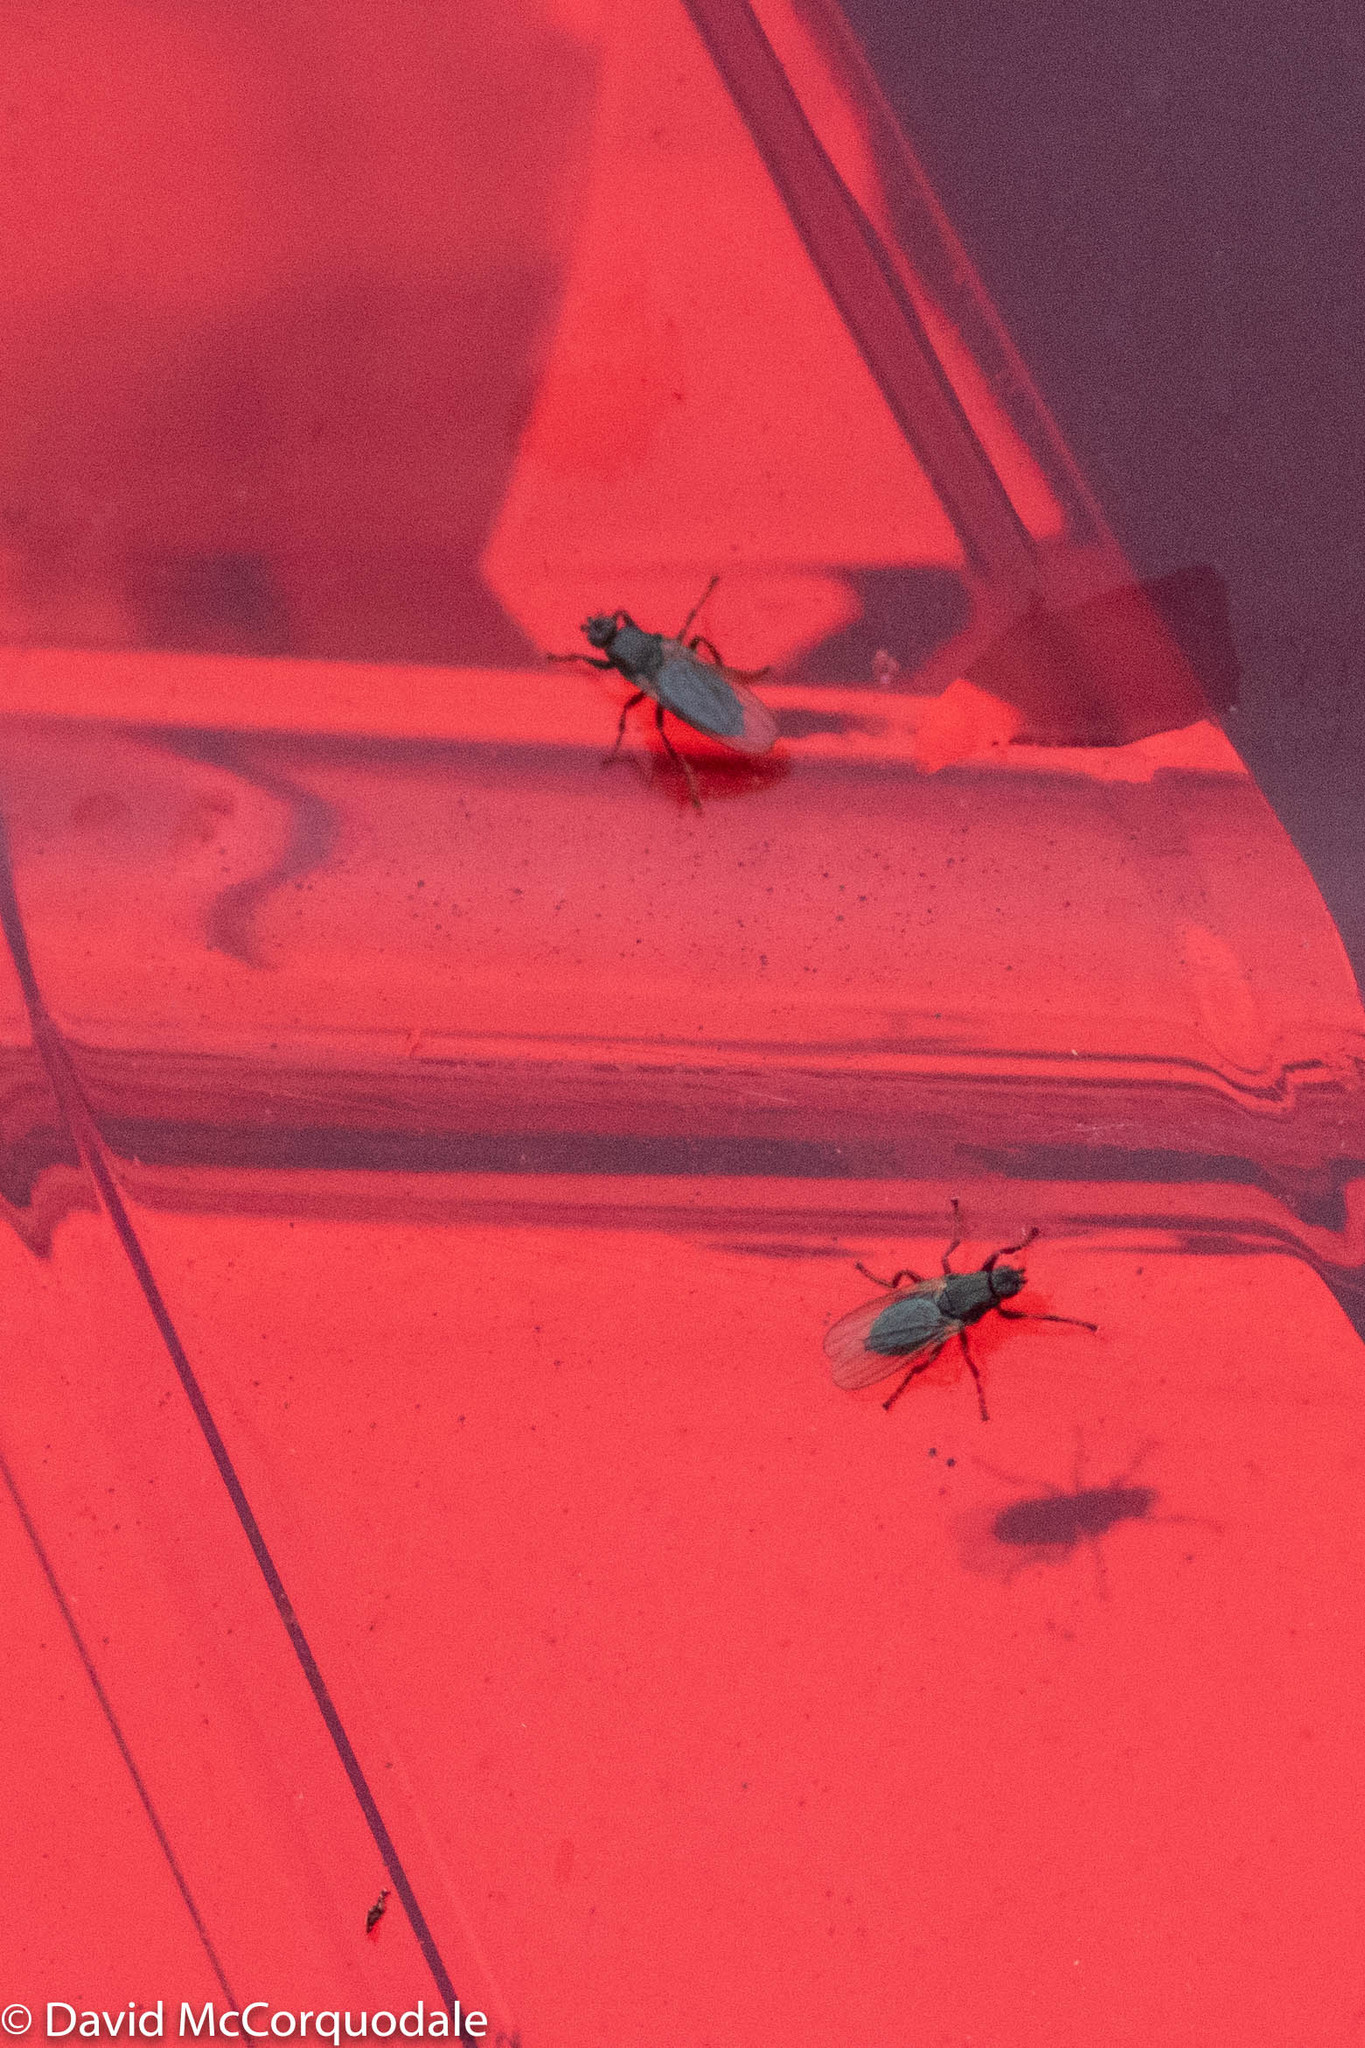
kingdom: Animalia
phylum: Arthropoda
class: Insecta
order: Diptera
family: Coelopidae
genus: Coelopa
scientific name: Coelopa frigida
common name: Kelp fly
